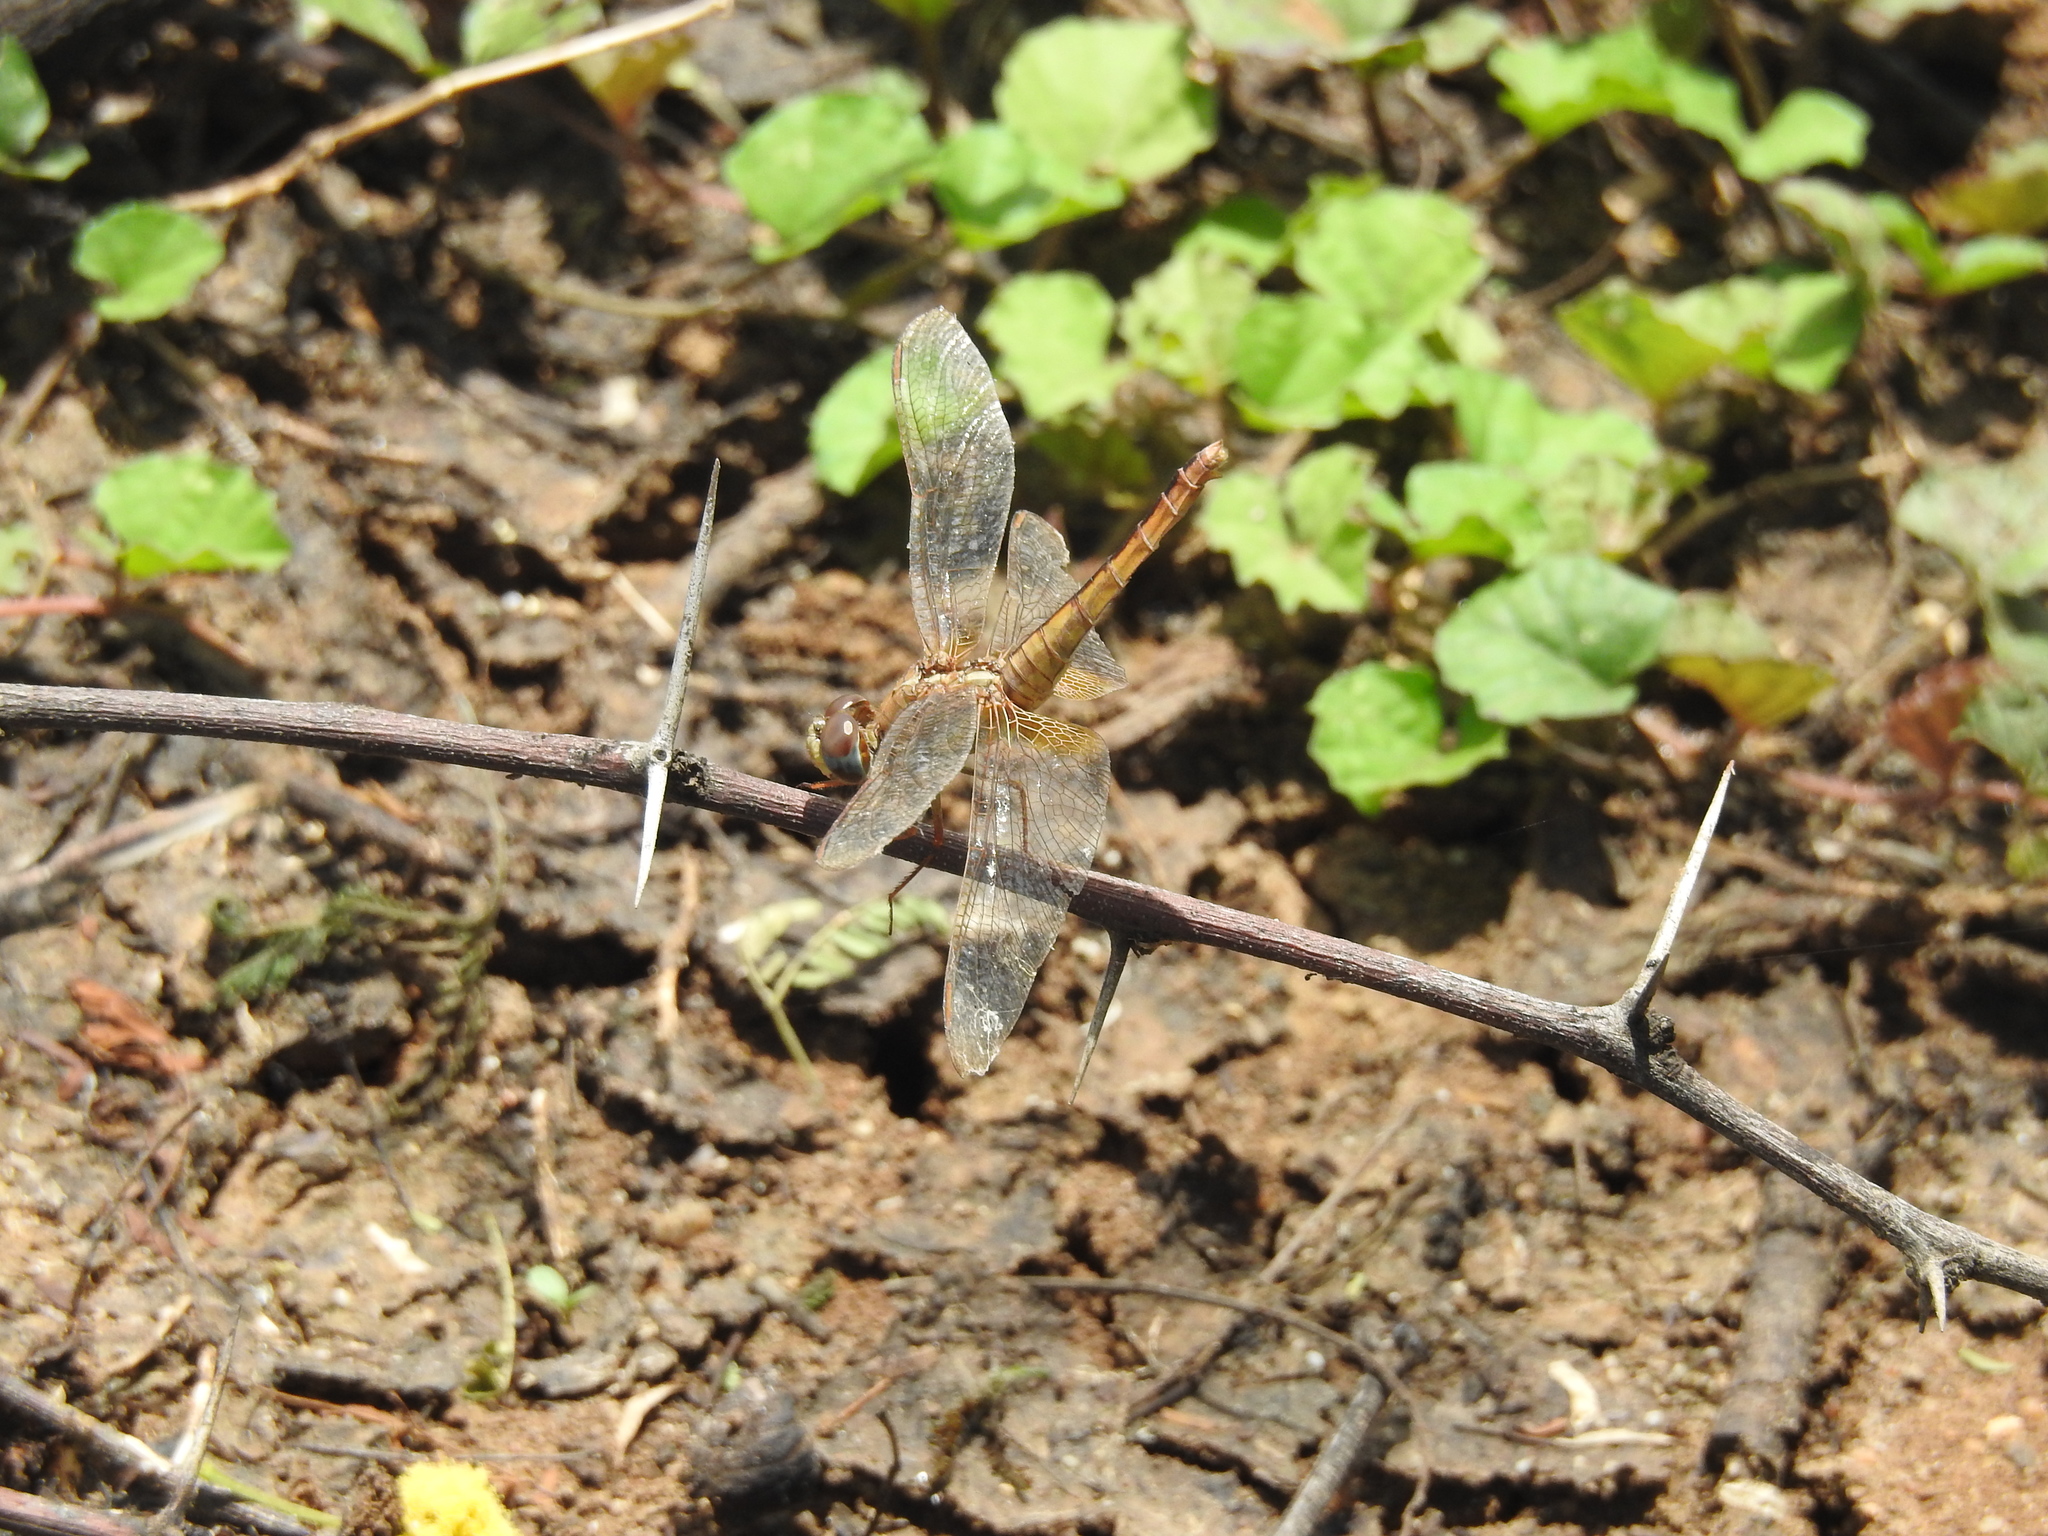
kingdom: Animalia
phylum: Arthropoda
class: Insecta
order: Odonata
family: Libellulidae
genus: Brachythemis
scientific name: Brachythemis contaminata
